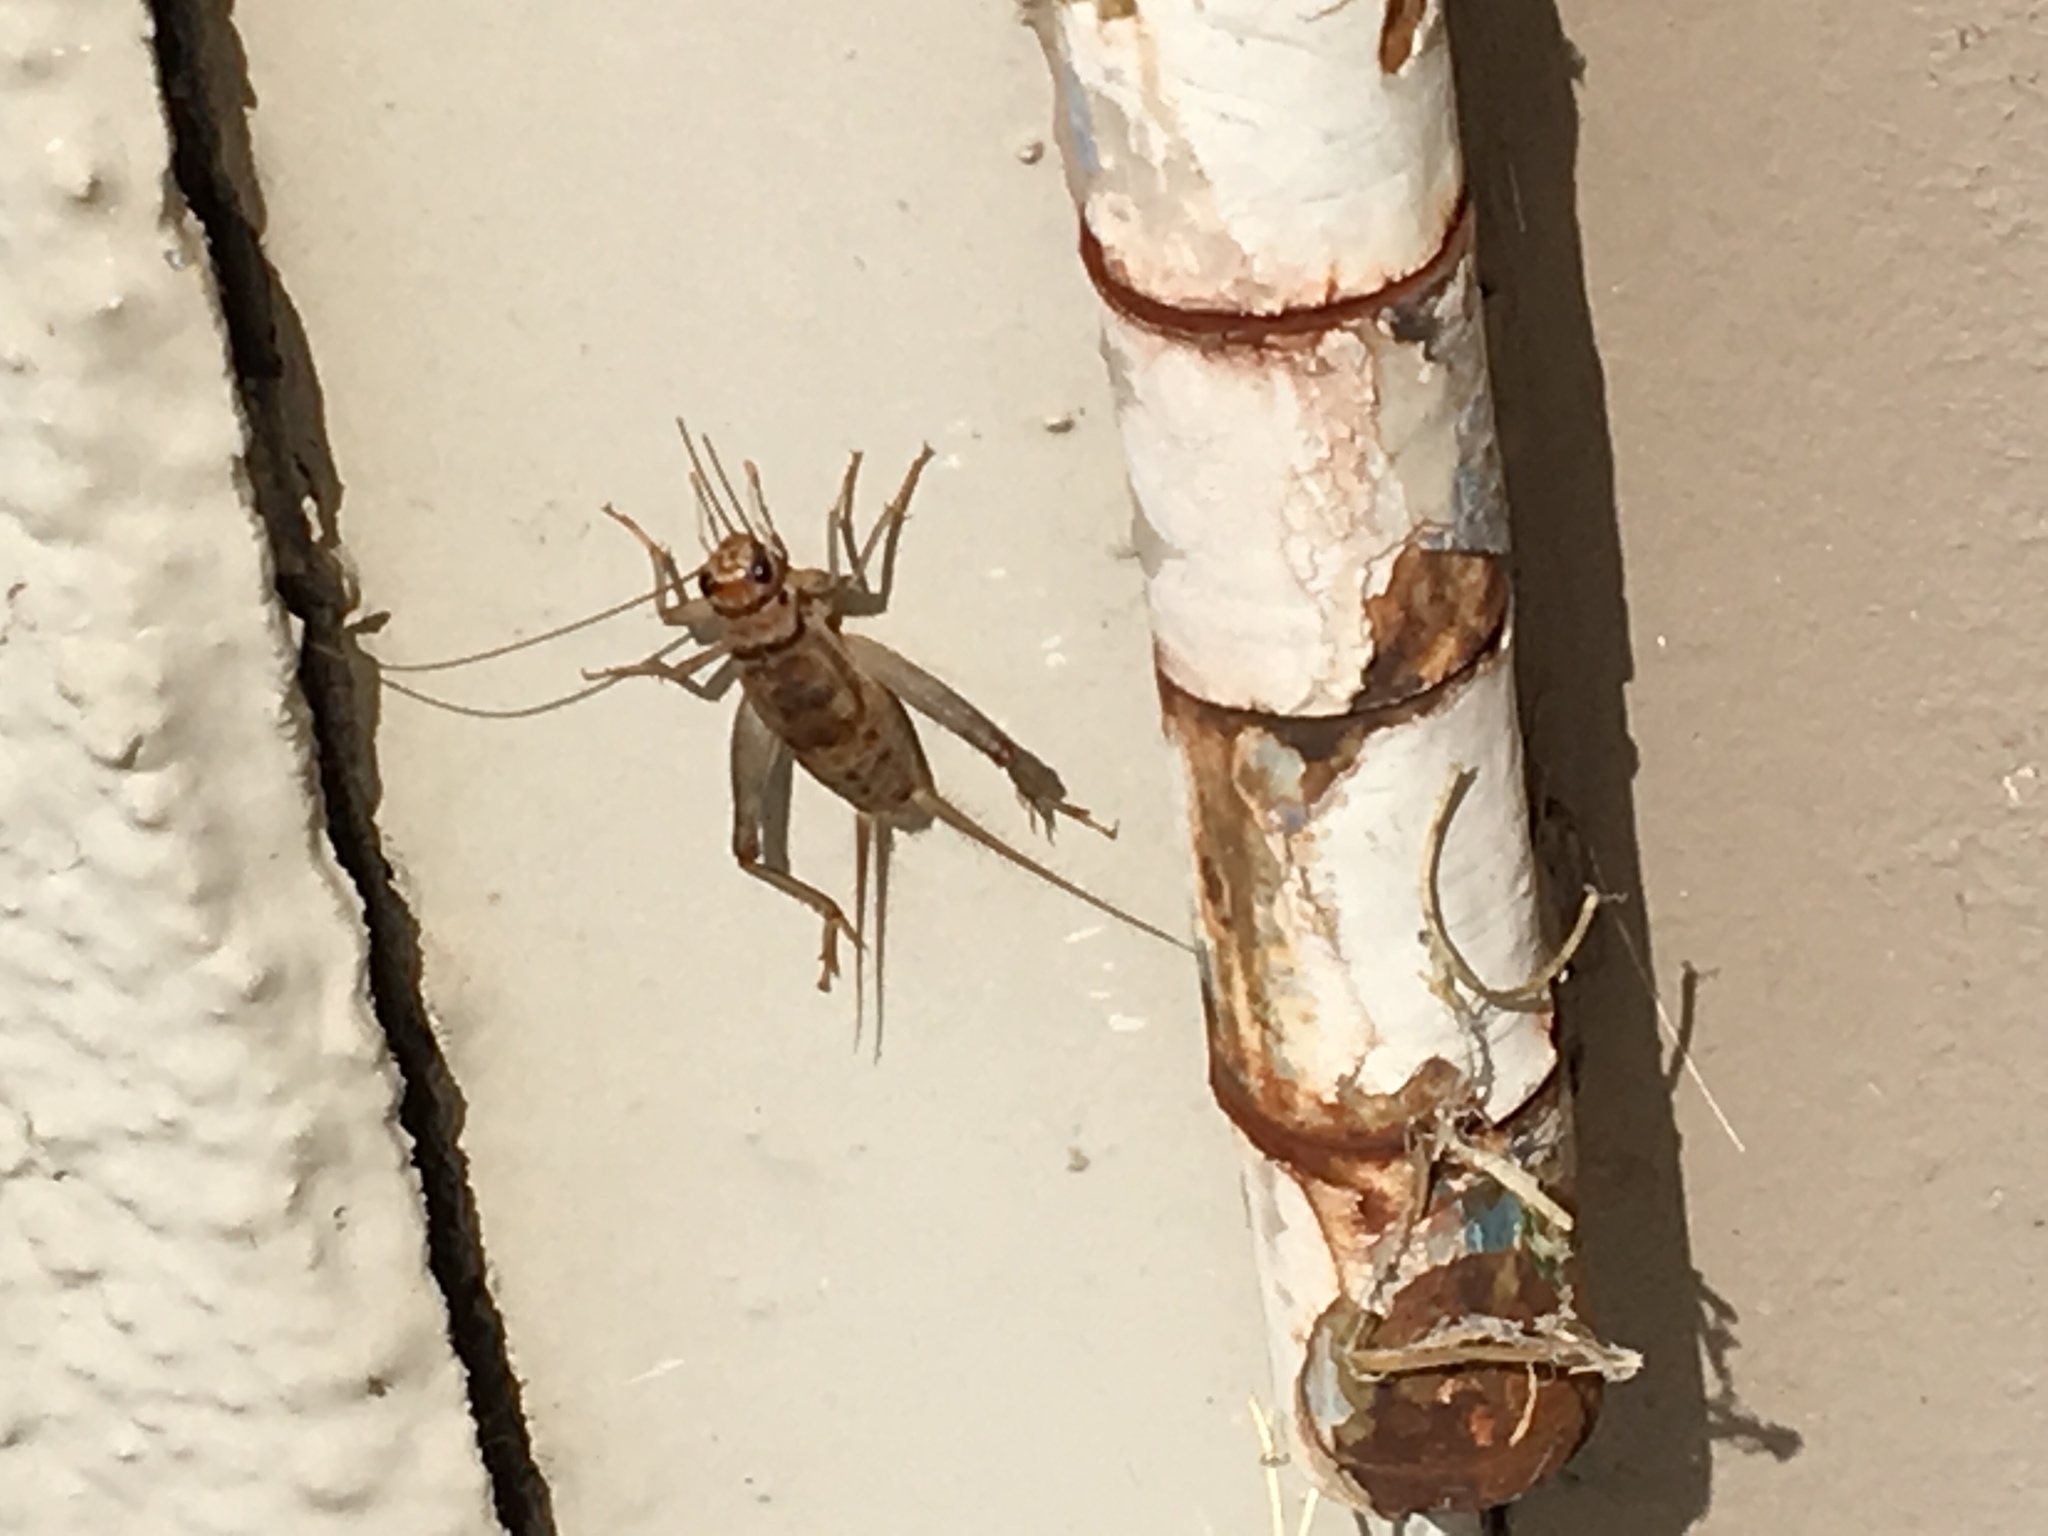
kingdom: Animalia
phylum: Arthropoda
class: Insecta
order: Orthoptera
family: Gryllidae
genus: Gryllodes
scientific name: Gryllodes sigillatus
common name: Tropical house cricket
